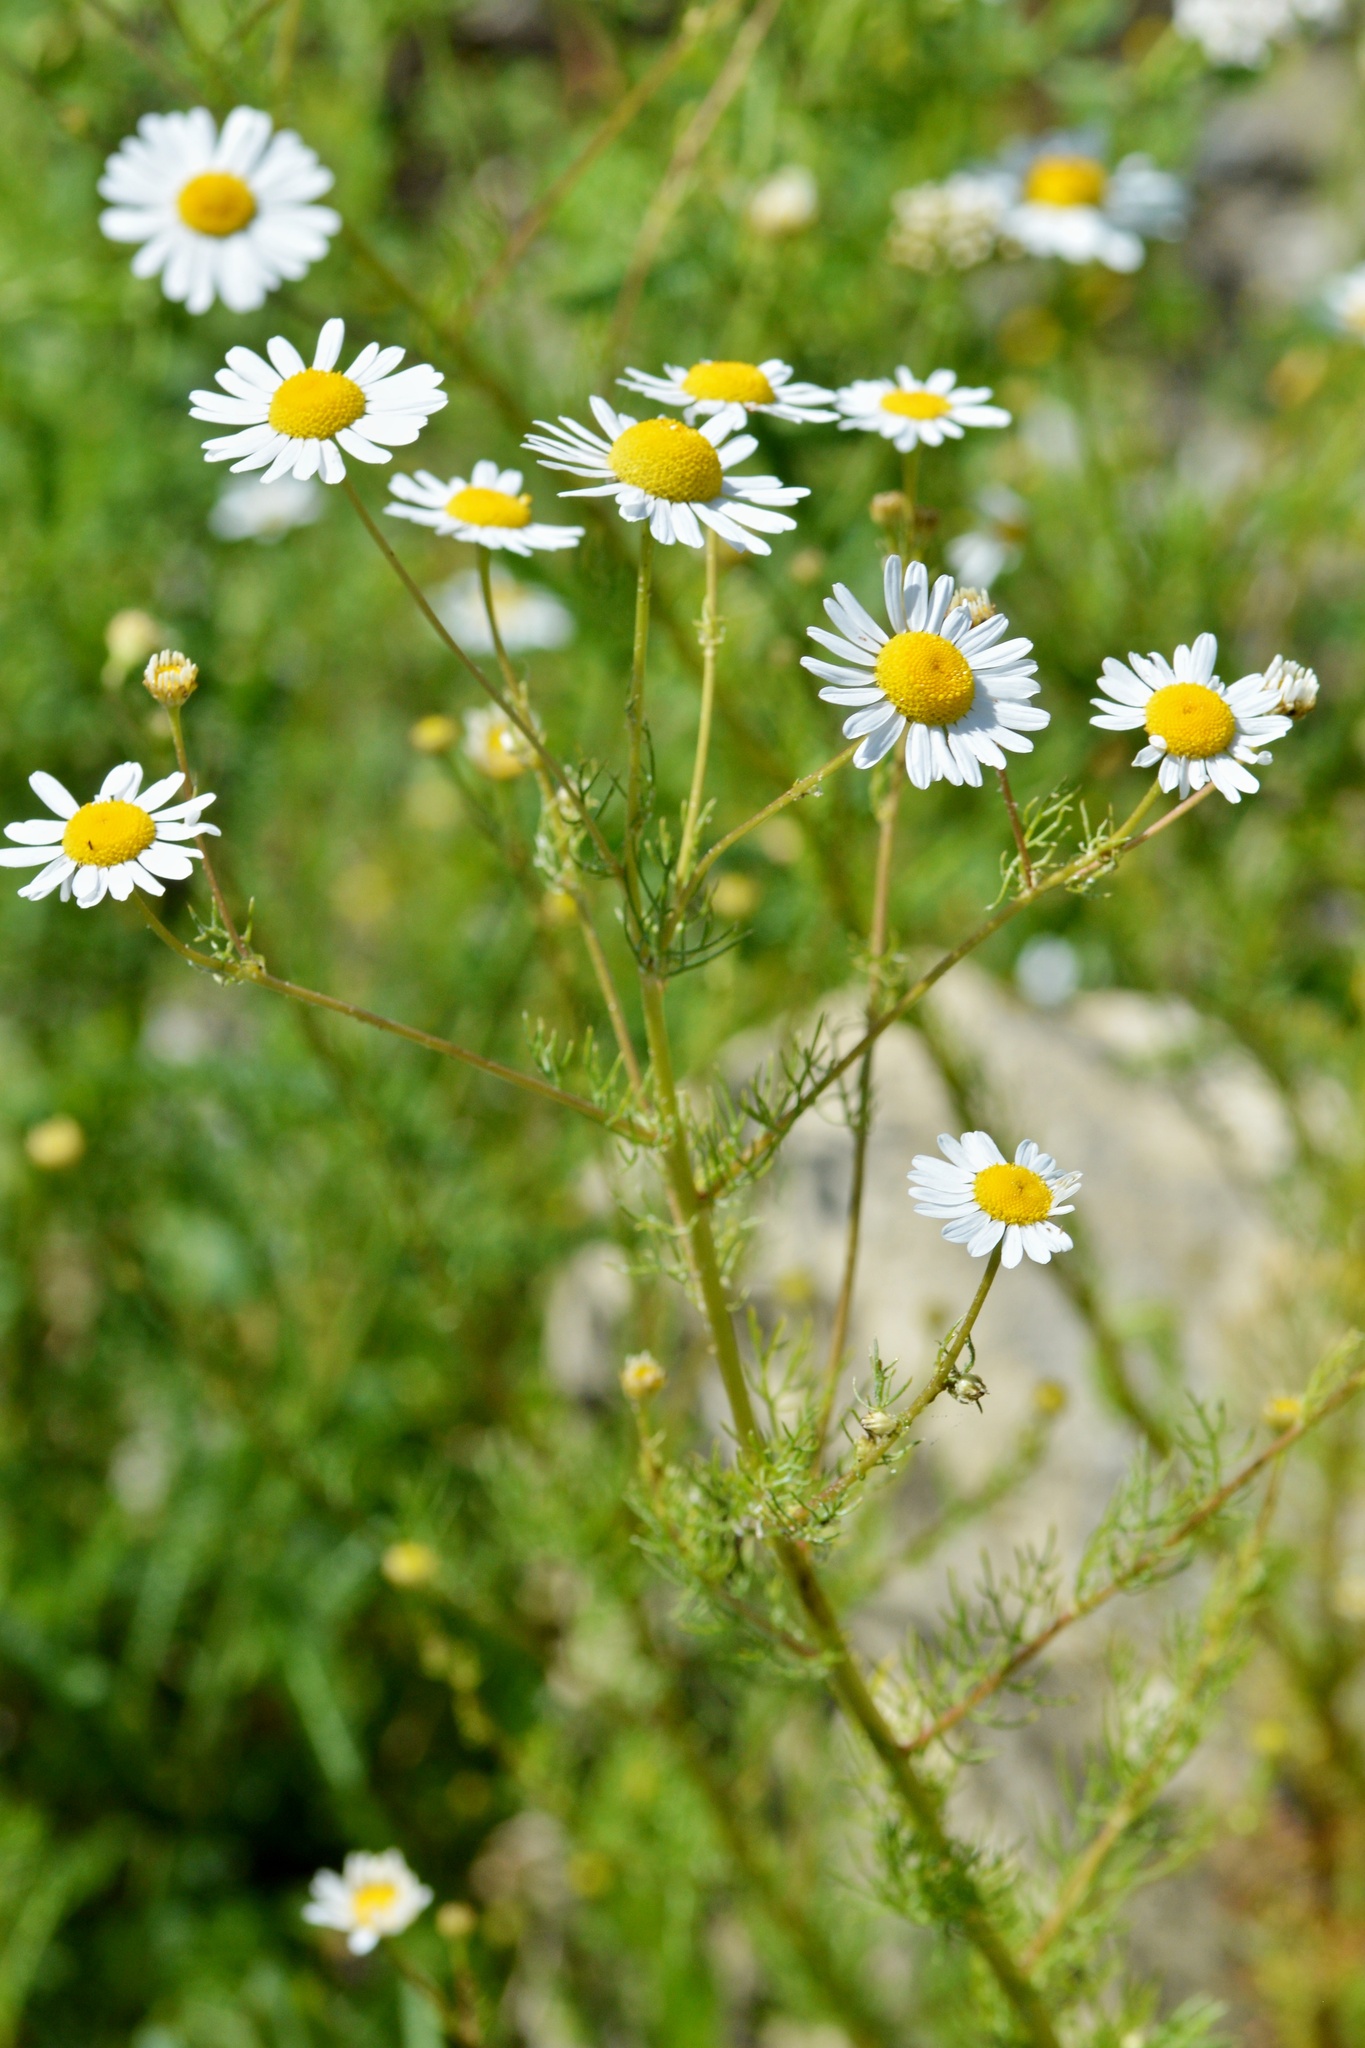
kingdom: Plantae
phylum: Tracheophyta
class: Magnoliopsida
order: Asterales
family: Asteraceae
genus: Tripleurospermum
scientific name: Tripleurospermum inodorum
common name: Scentless mayweed
